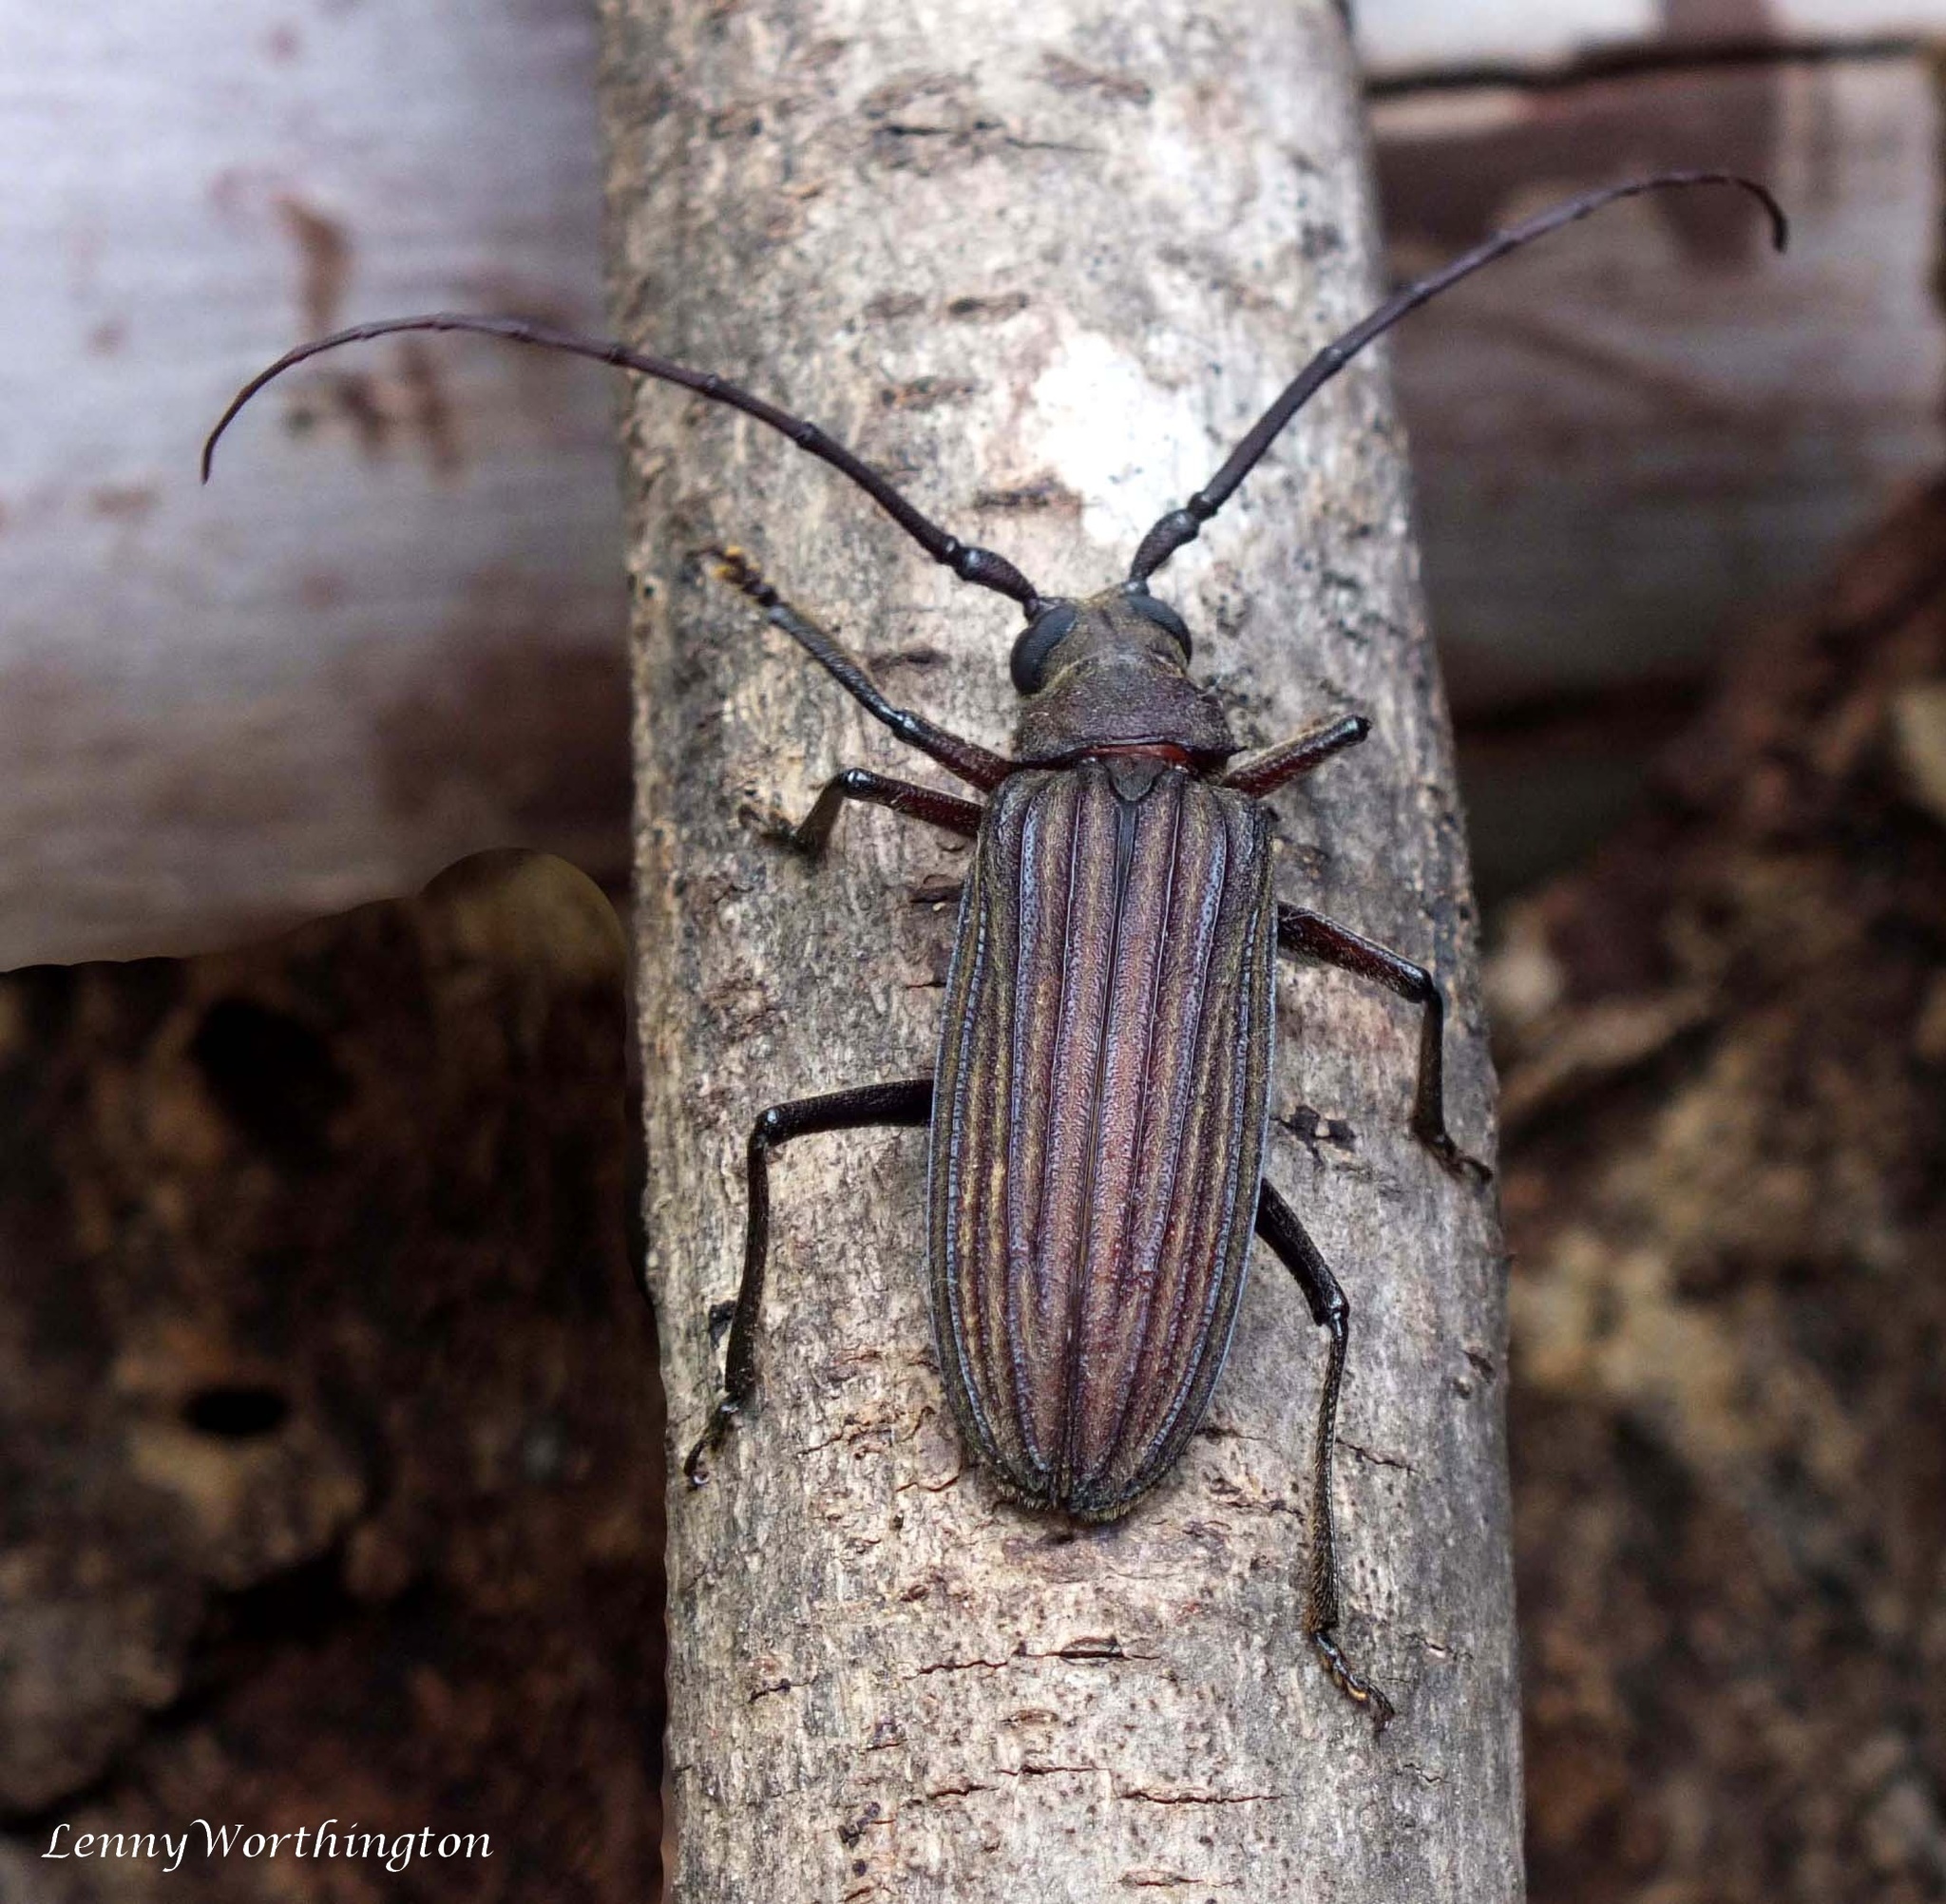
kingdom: Animalia
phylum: Arthropoda
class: Insecta
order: Coleoptera
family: Cerambycidae
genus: Nepiodes
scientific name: Nepiodes sulcipennis
